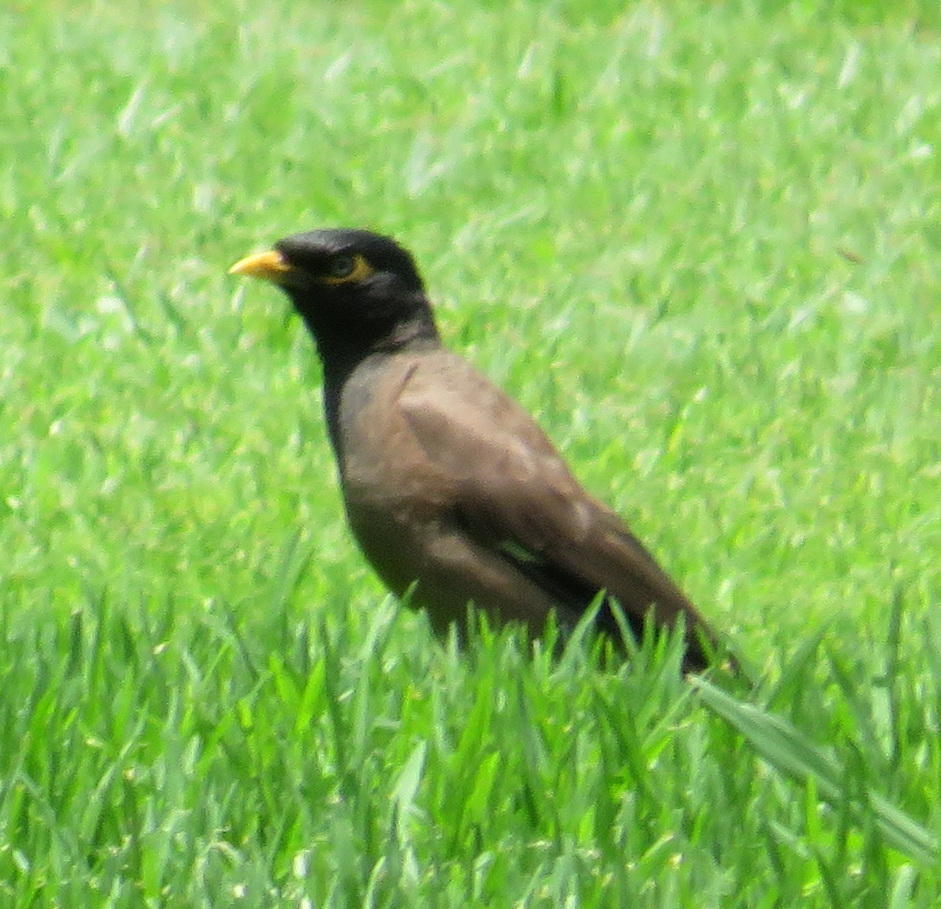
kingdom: Animalia
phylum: Chordata
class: Aves
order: Passeriformes
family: Sturnidae
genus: Acridotheres
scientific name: Acridotheres tristis
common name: Common myna
